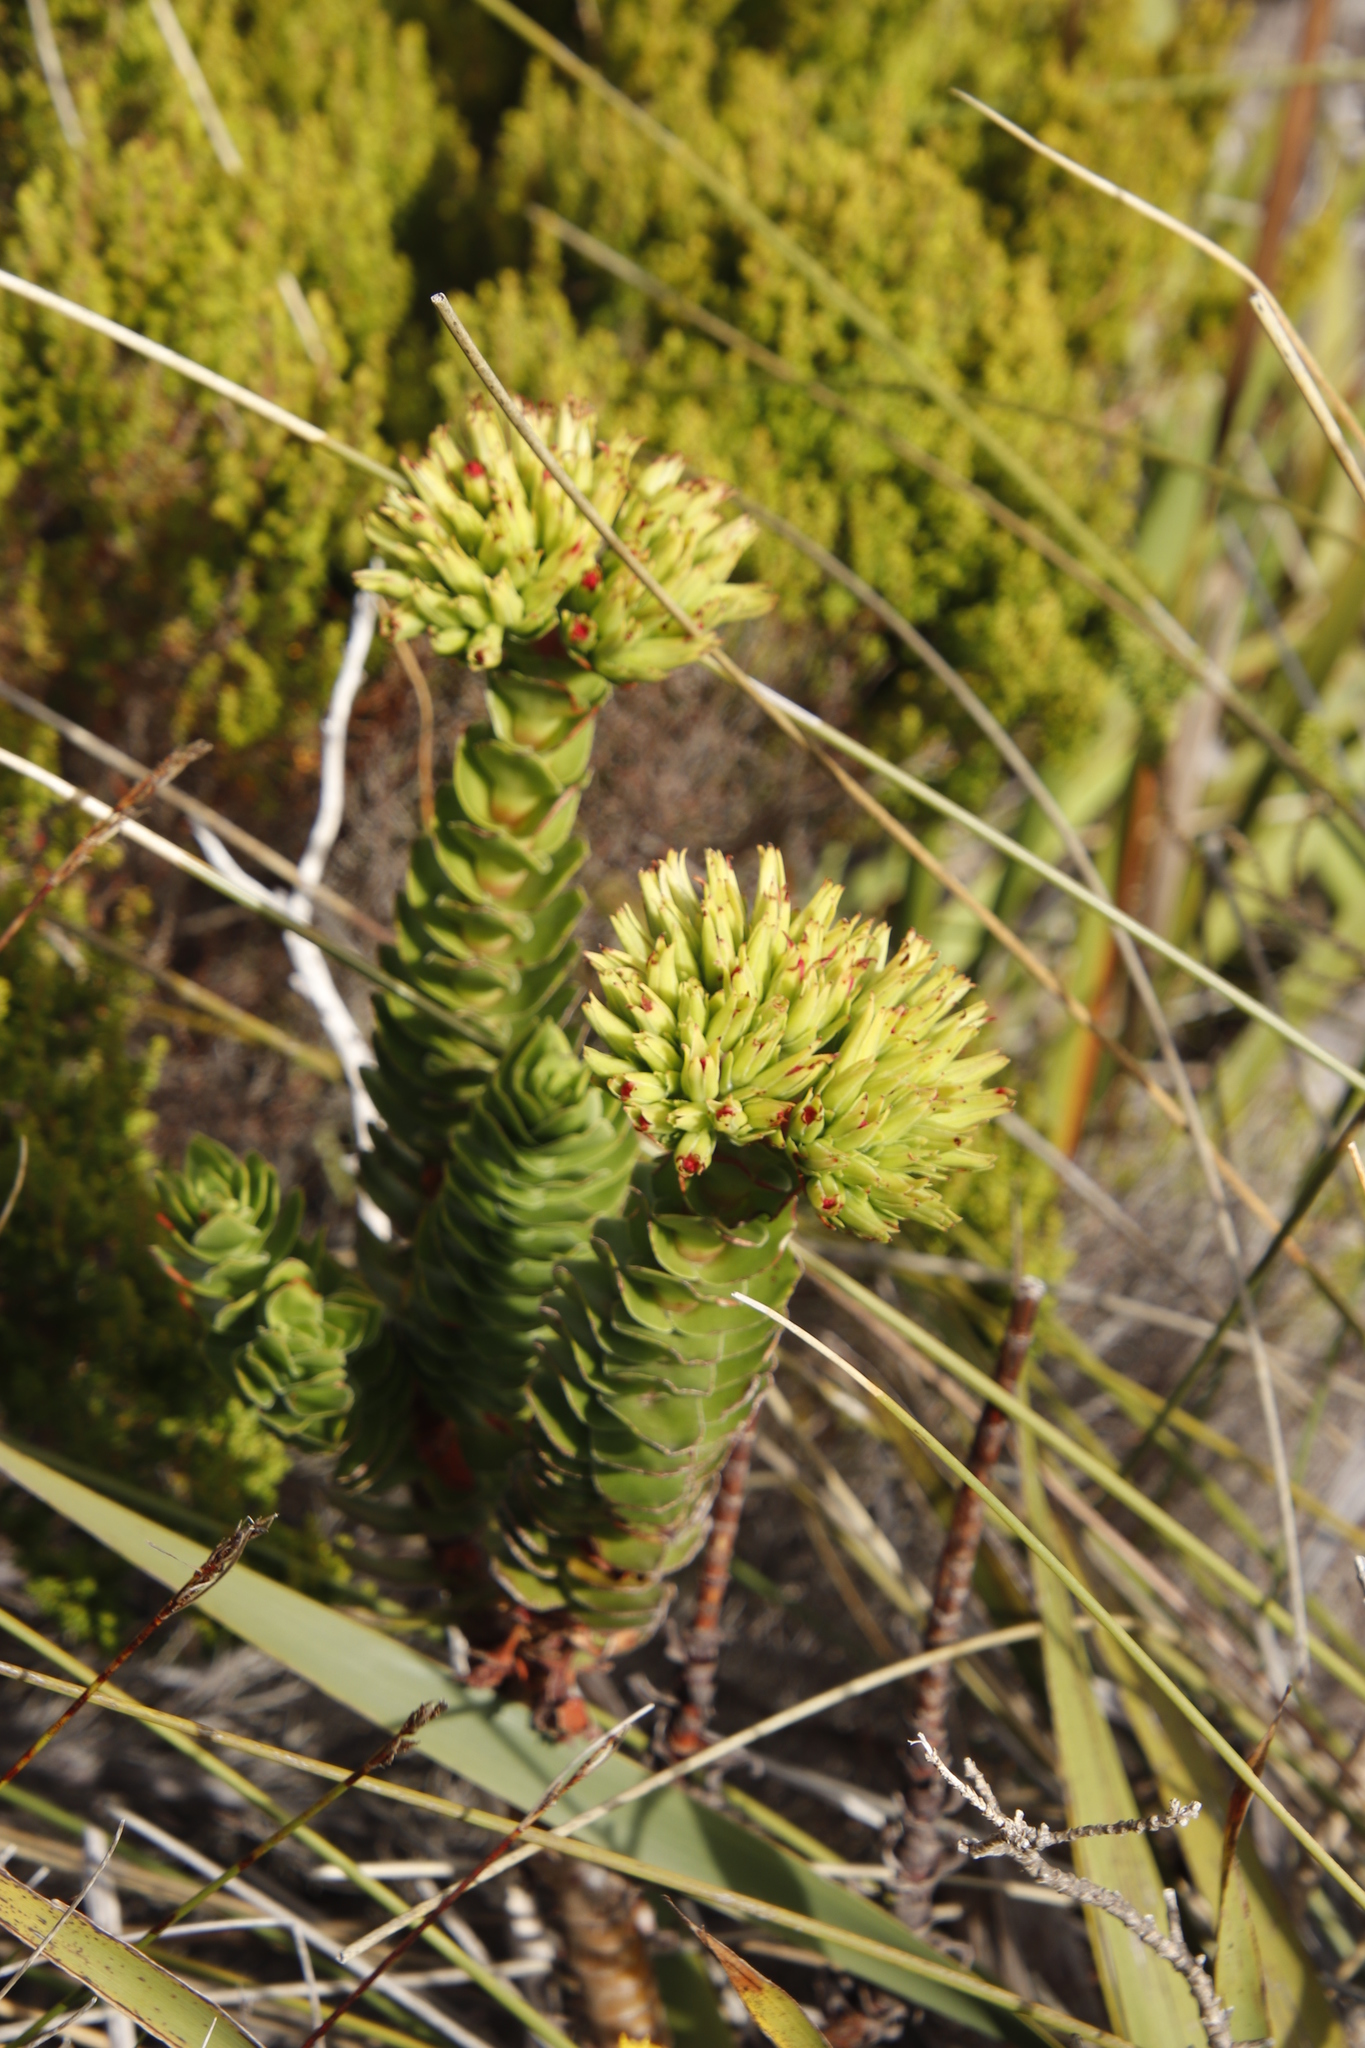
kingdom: Plantae
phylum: Tracheophyta
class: Magnoliopsida
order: Saxifragales
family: Crassulaceae
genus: Crassula
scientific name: Crassula coccinea
